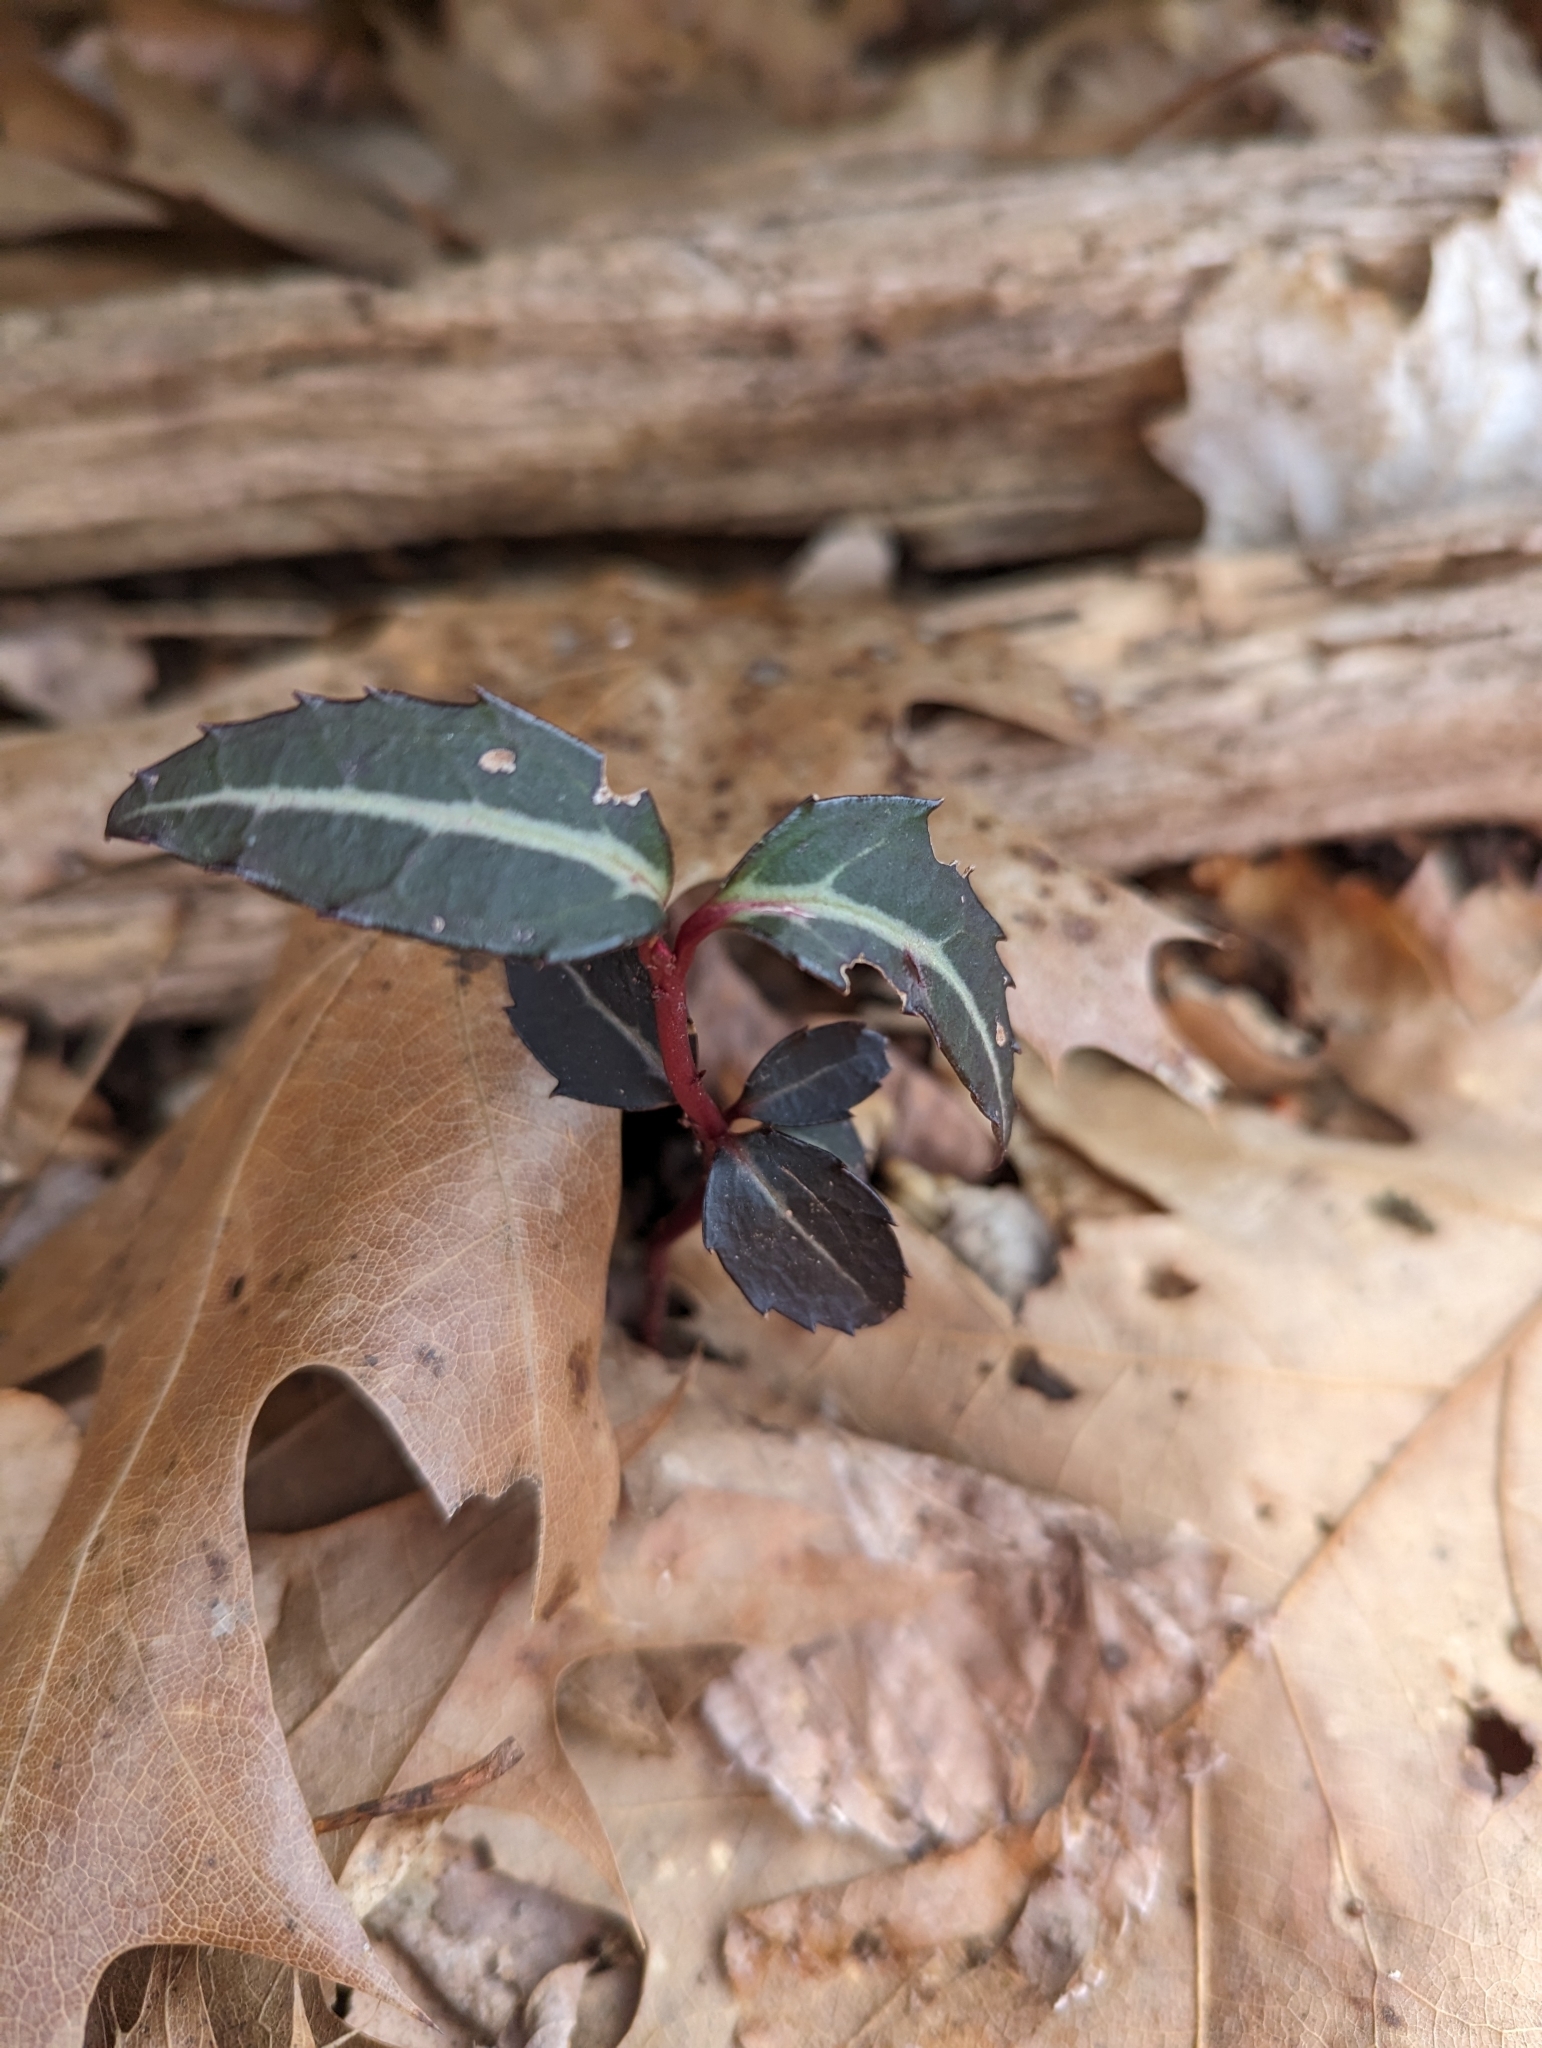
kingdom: Plantae
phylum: Tracheophyta
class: Magnoliopsida
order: Ericales
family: Ericaceae
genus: Chimaphila
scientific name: Chimaphila maculata
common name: Spotted pipsissewa
